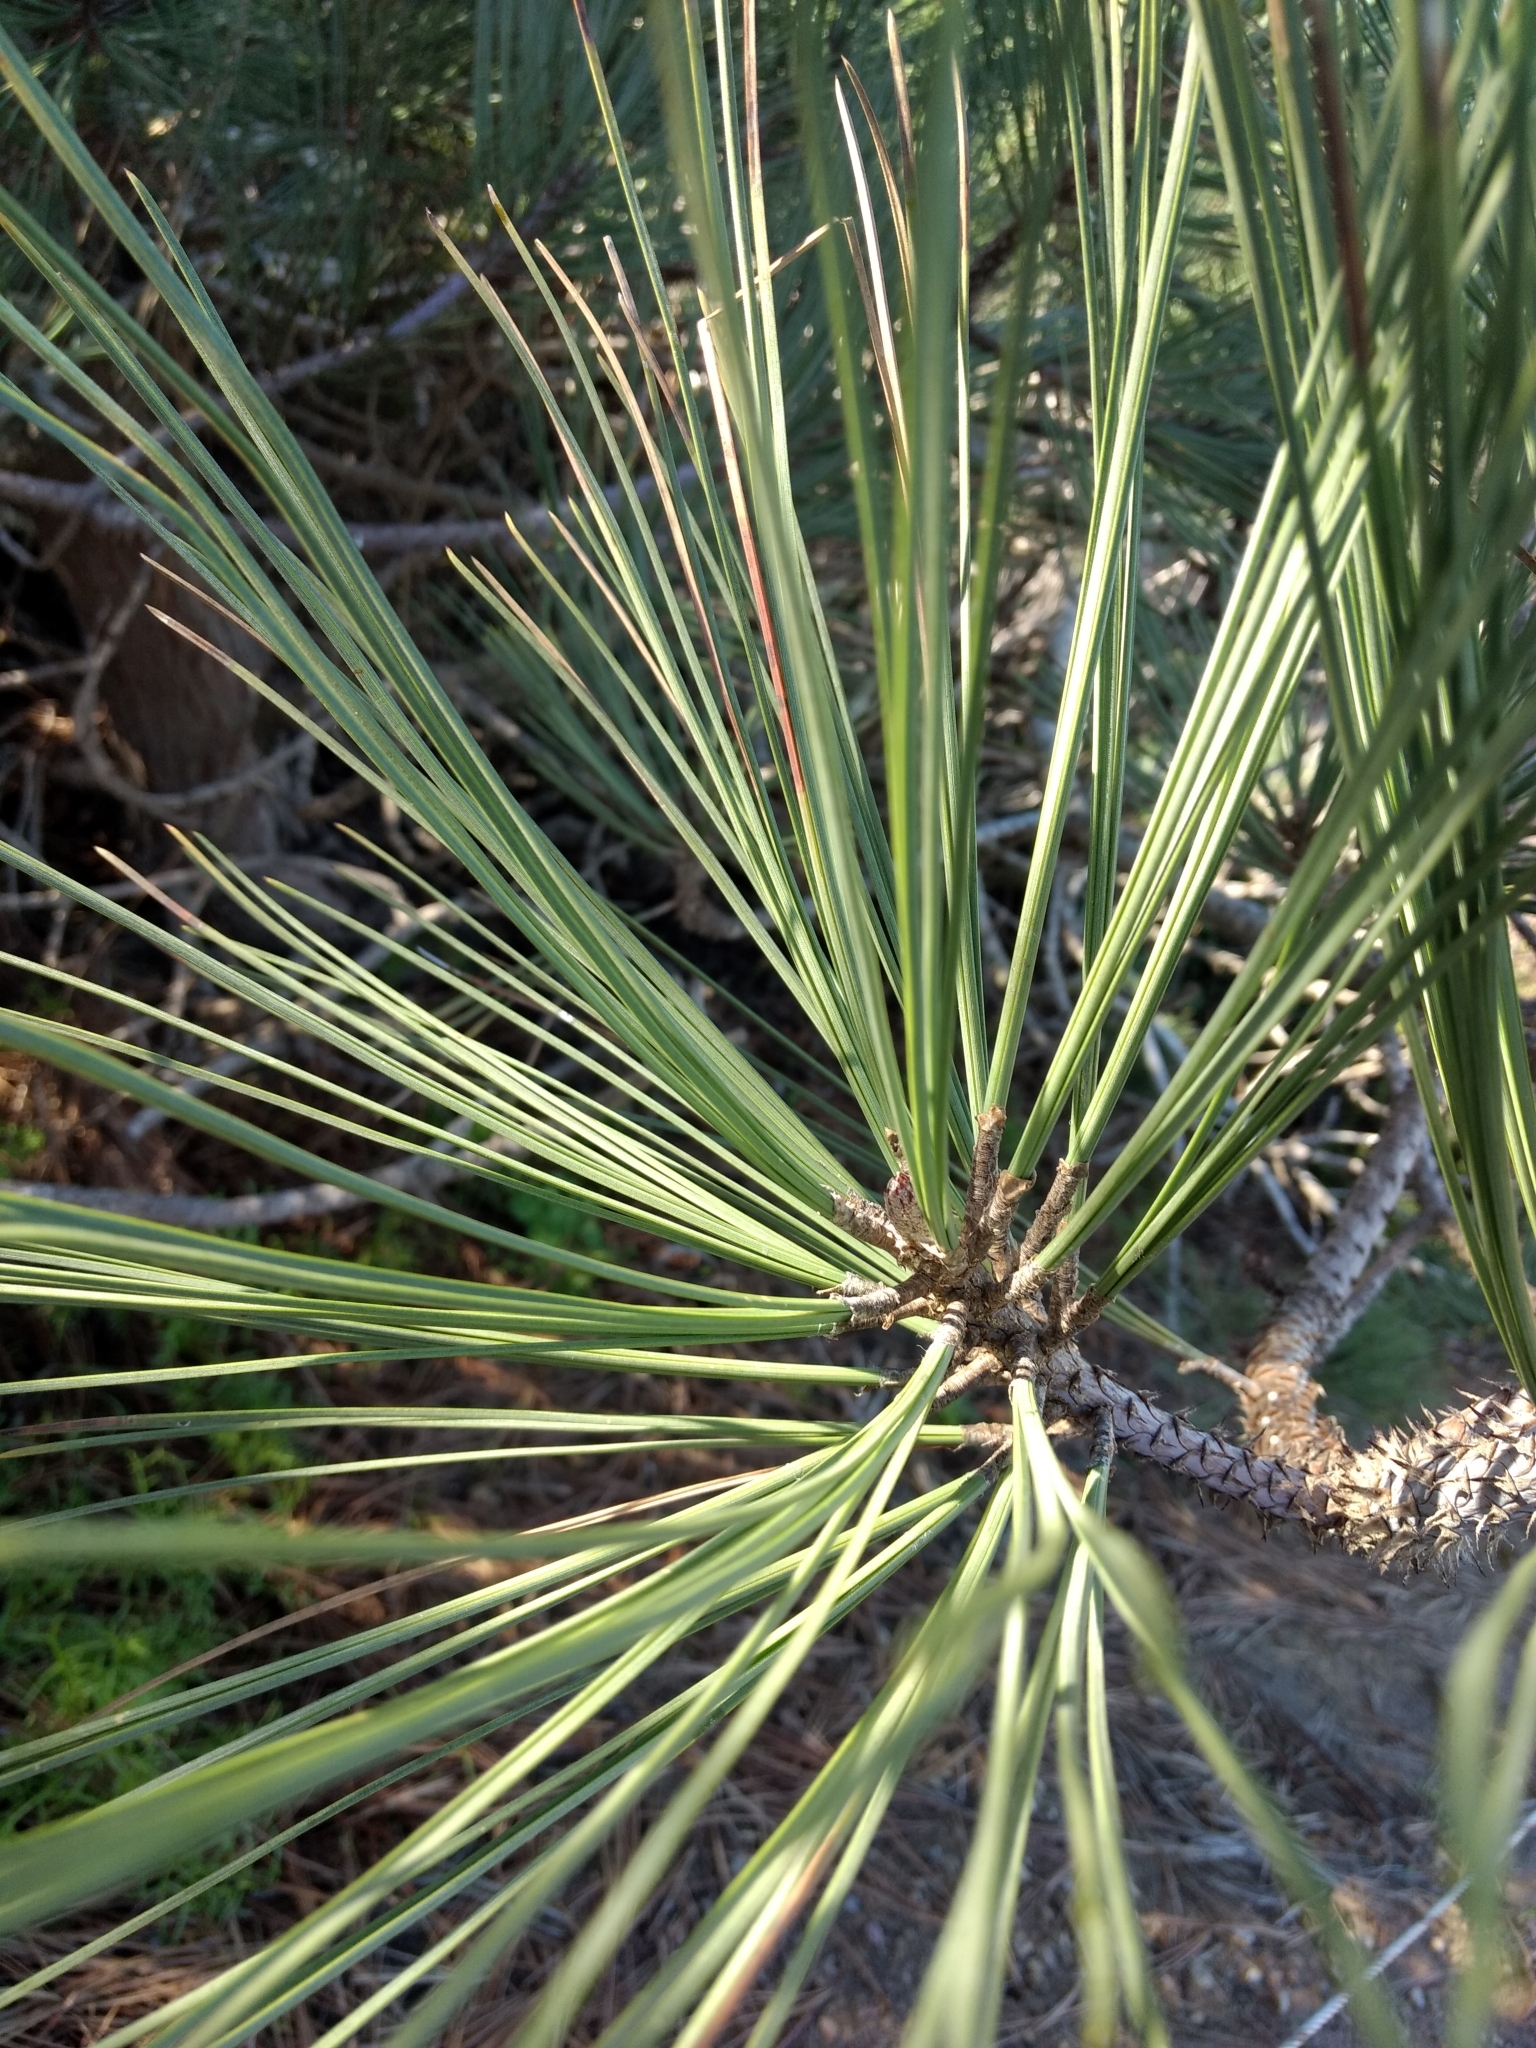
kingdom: Plantae
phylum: Tracheophyta
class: Pinopsida
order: Pinales
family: Pinaceae
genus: Pinus
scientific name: Pinus torreyana
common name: Torrey pine
